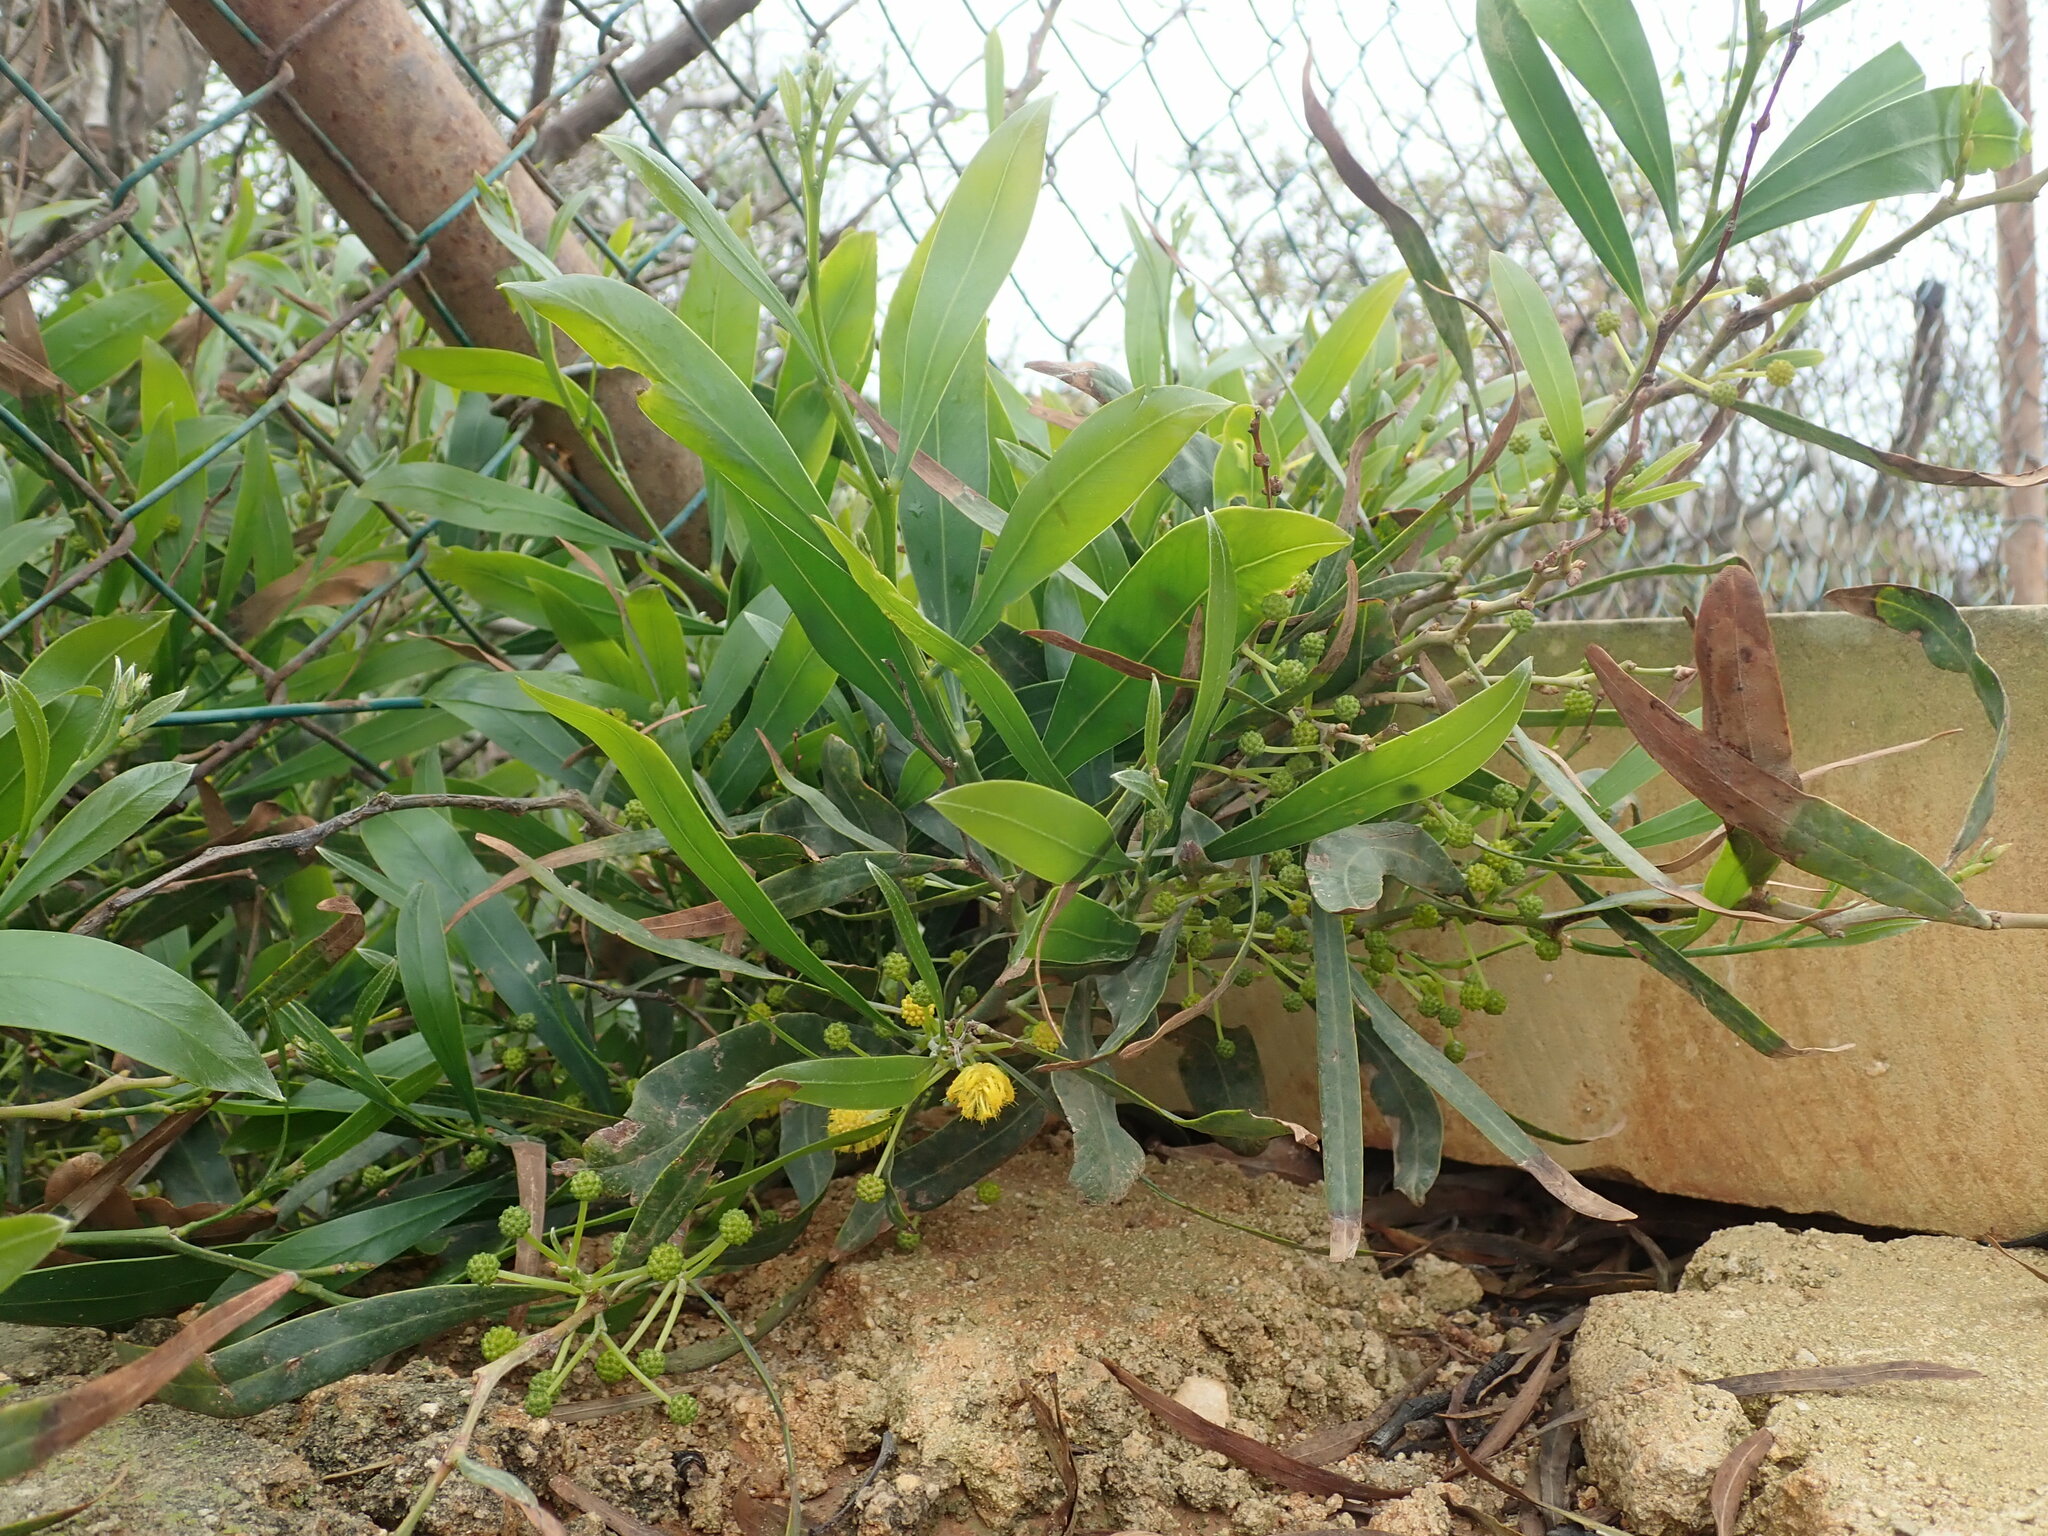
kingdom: Plantae
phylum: Tracheophyta
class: Magnoliopsida
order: Fabales
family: Fabaceae
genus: Acacia
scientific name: Acacia saligna
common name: Orange wattle
